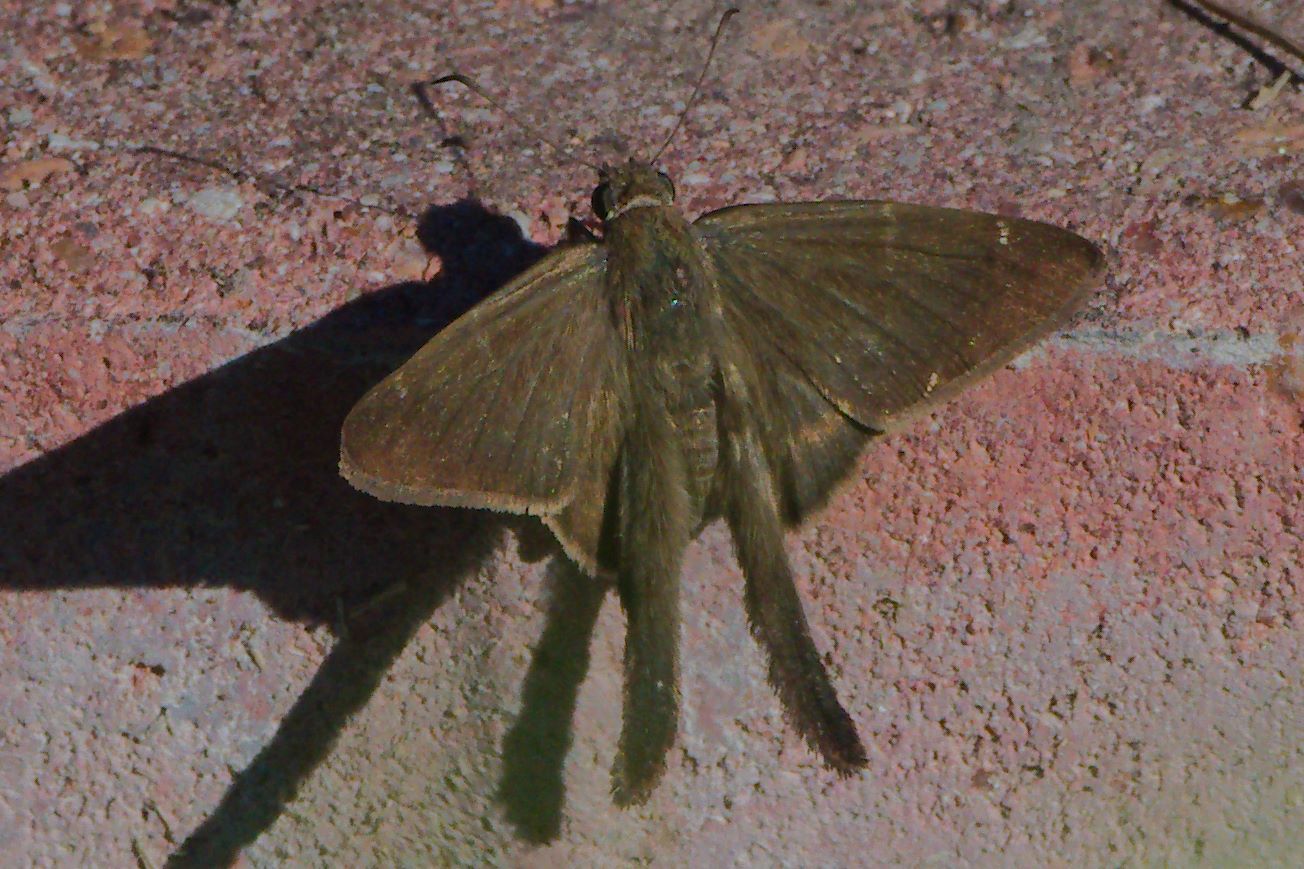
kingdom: Animalia
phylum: Arthropoda
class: Insecta
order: Lepidoptera
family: Hesperiidae
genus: Urbanus
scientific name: Urbanus procne
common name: Brown longtail
